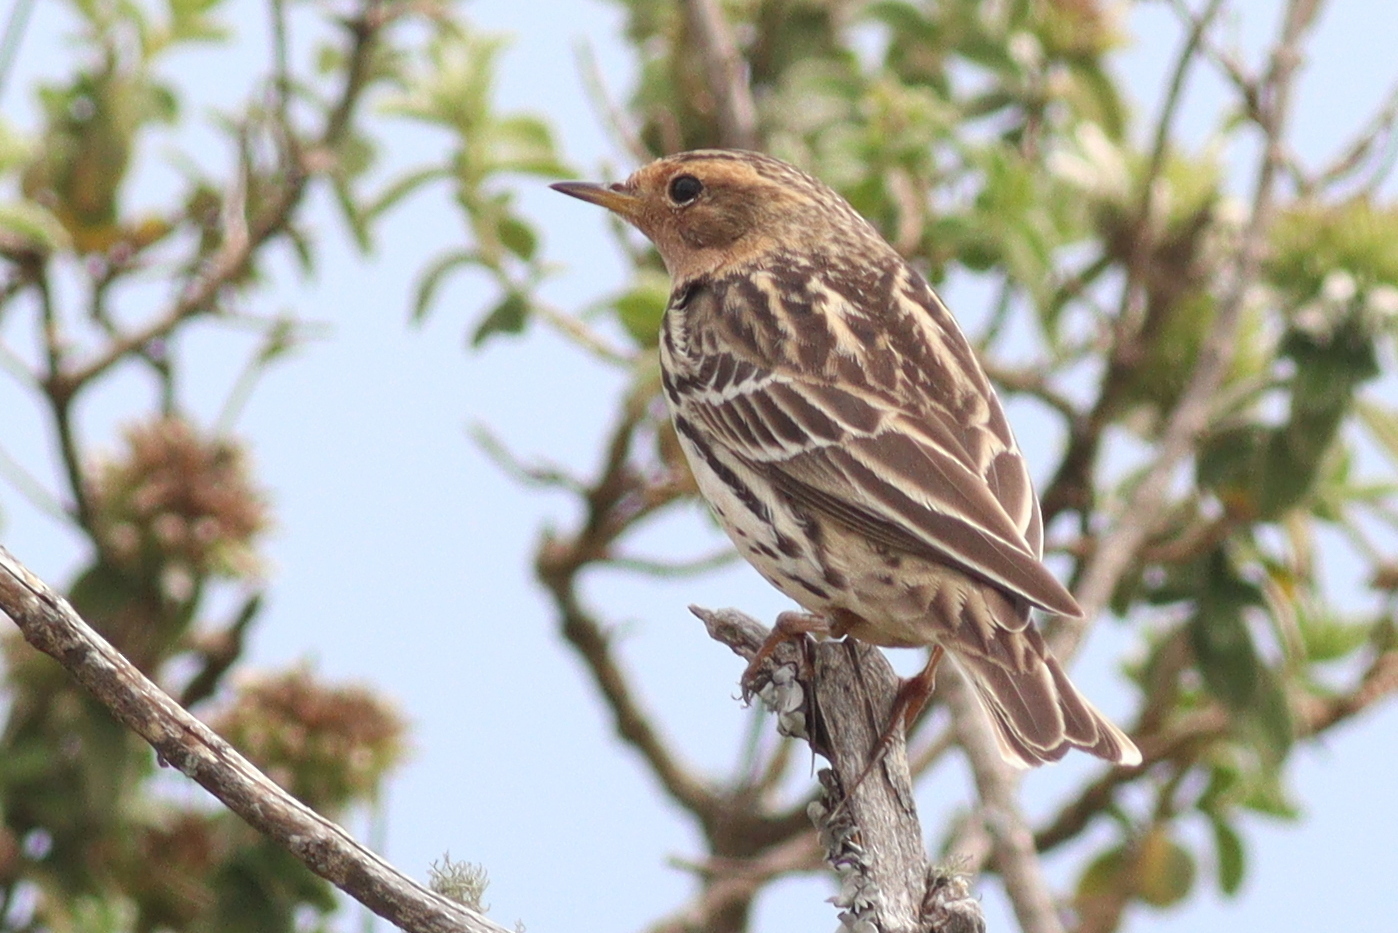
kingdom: Animalia
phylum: Chordata
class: Aves
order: Passeriformes
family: Motacillidae
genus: Anthus
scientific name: Anthus cervinus
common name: Red-throated pipit
